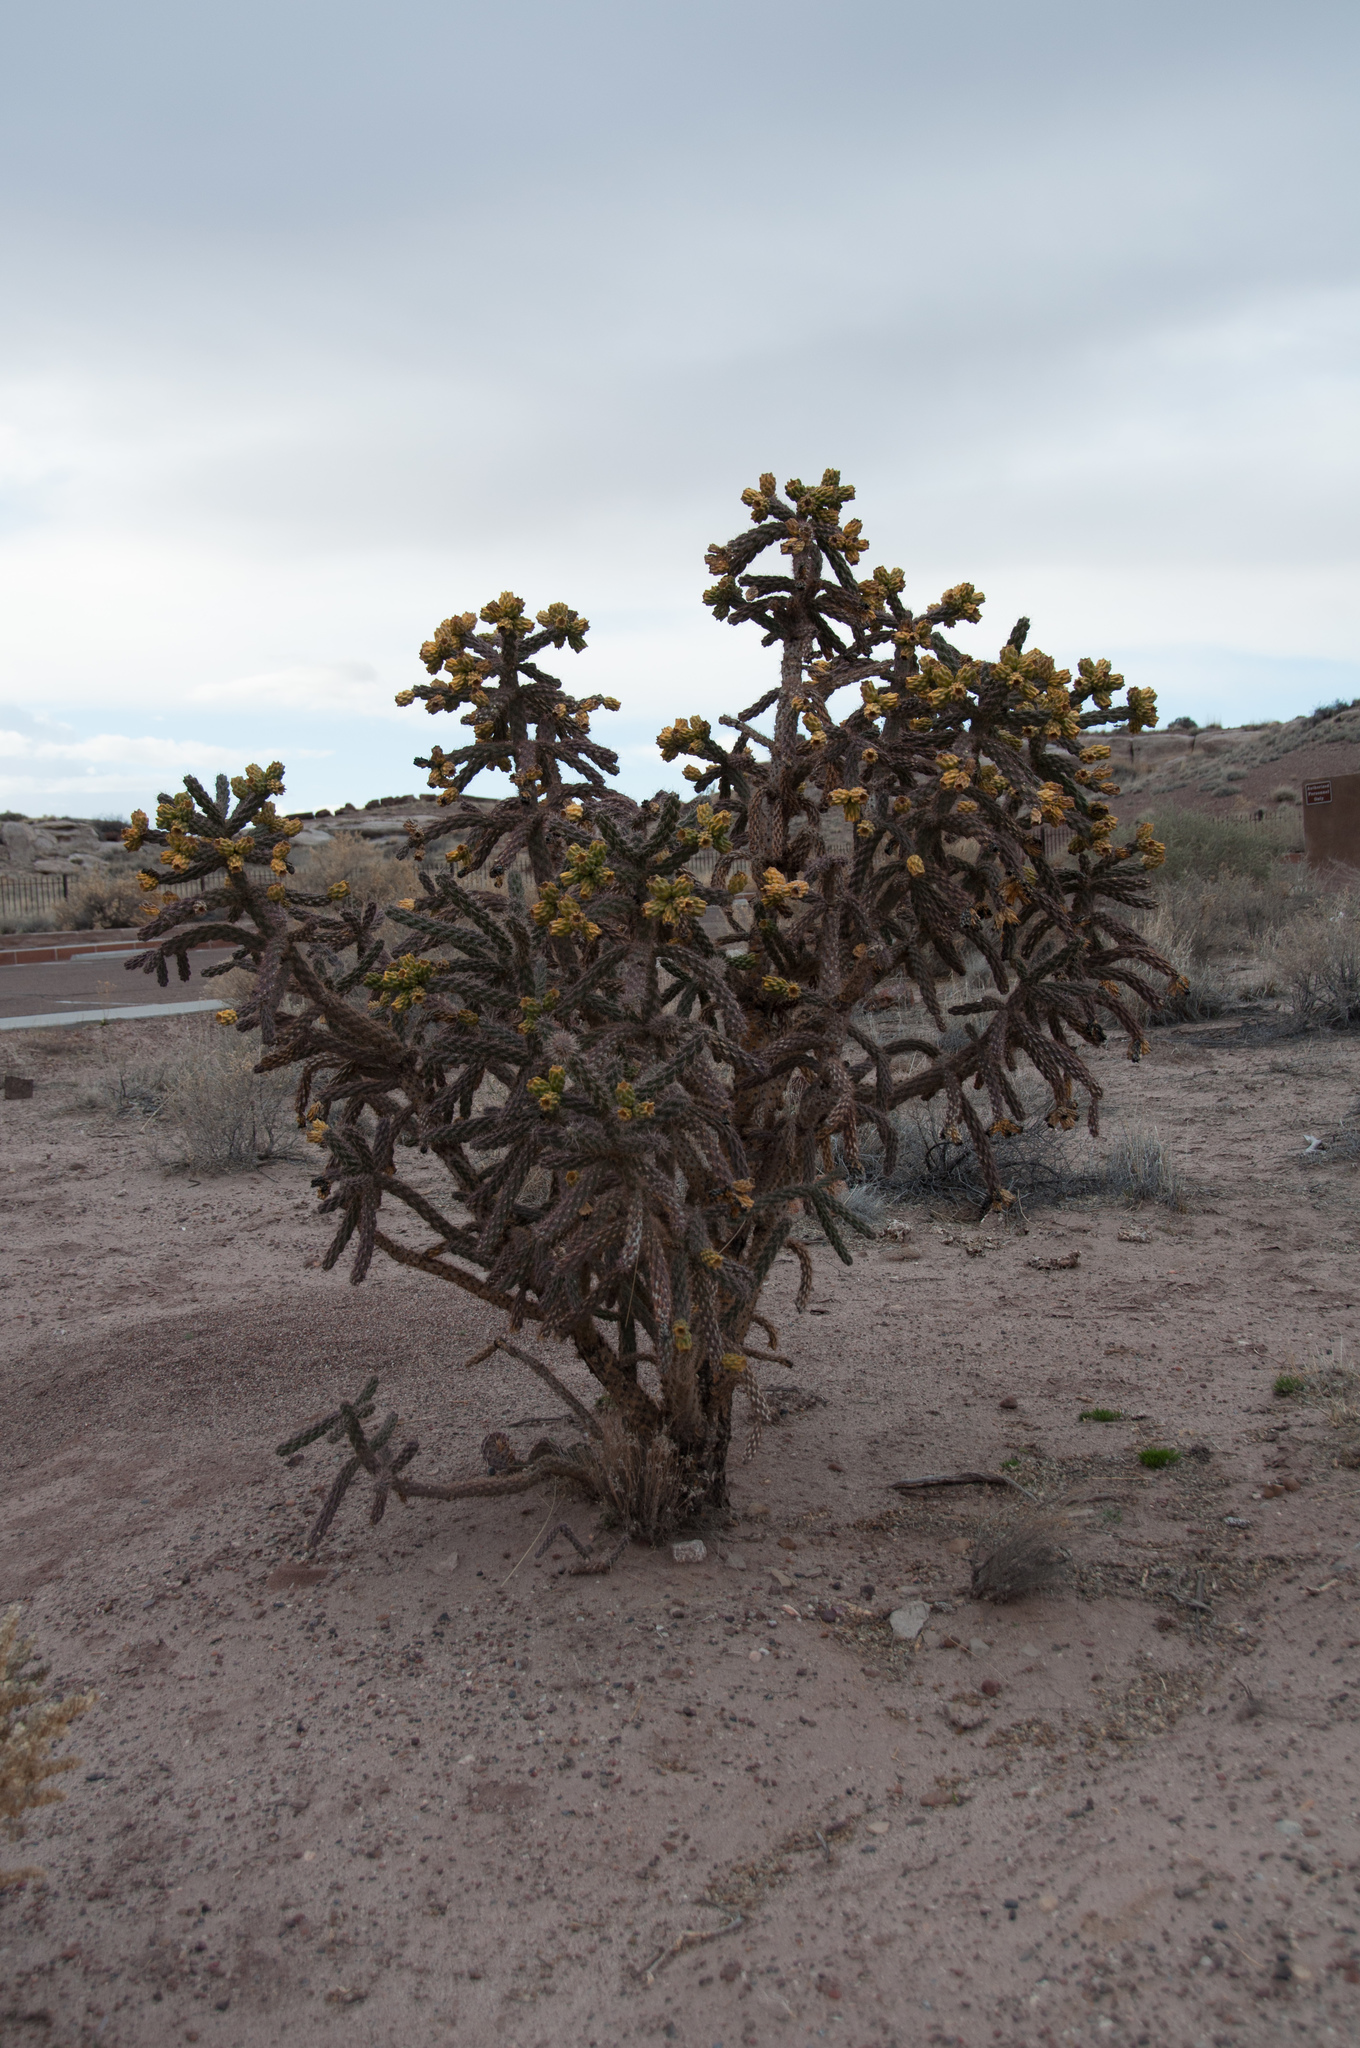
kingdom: Plantae
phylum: Tracheophyta
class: Magnoliopsida
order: Caryophyllales
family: Cactaceae
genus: Cylindropuntia
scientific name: Cylindropuntia imbricata
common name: Candelabrum cactus
